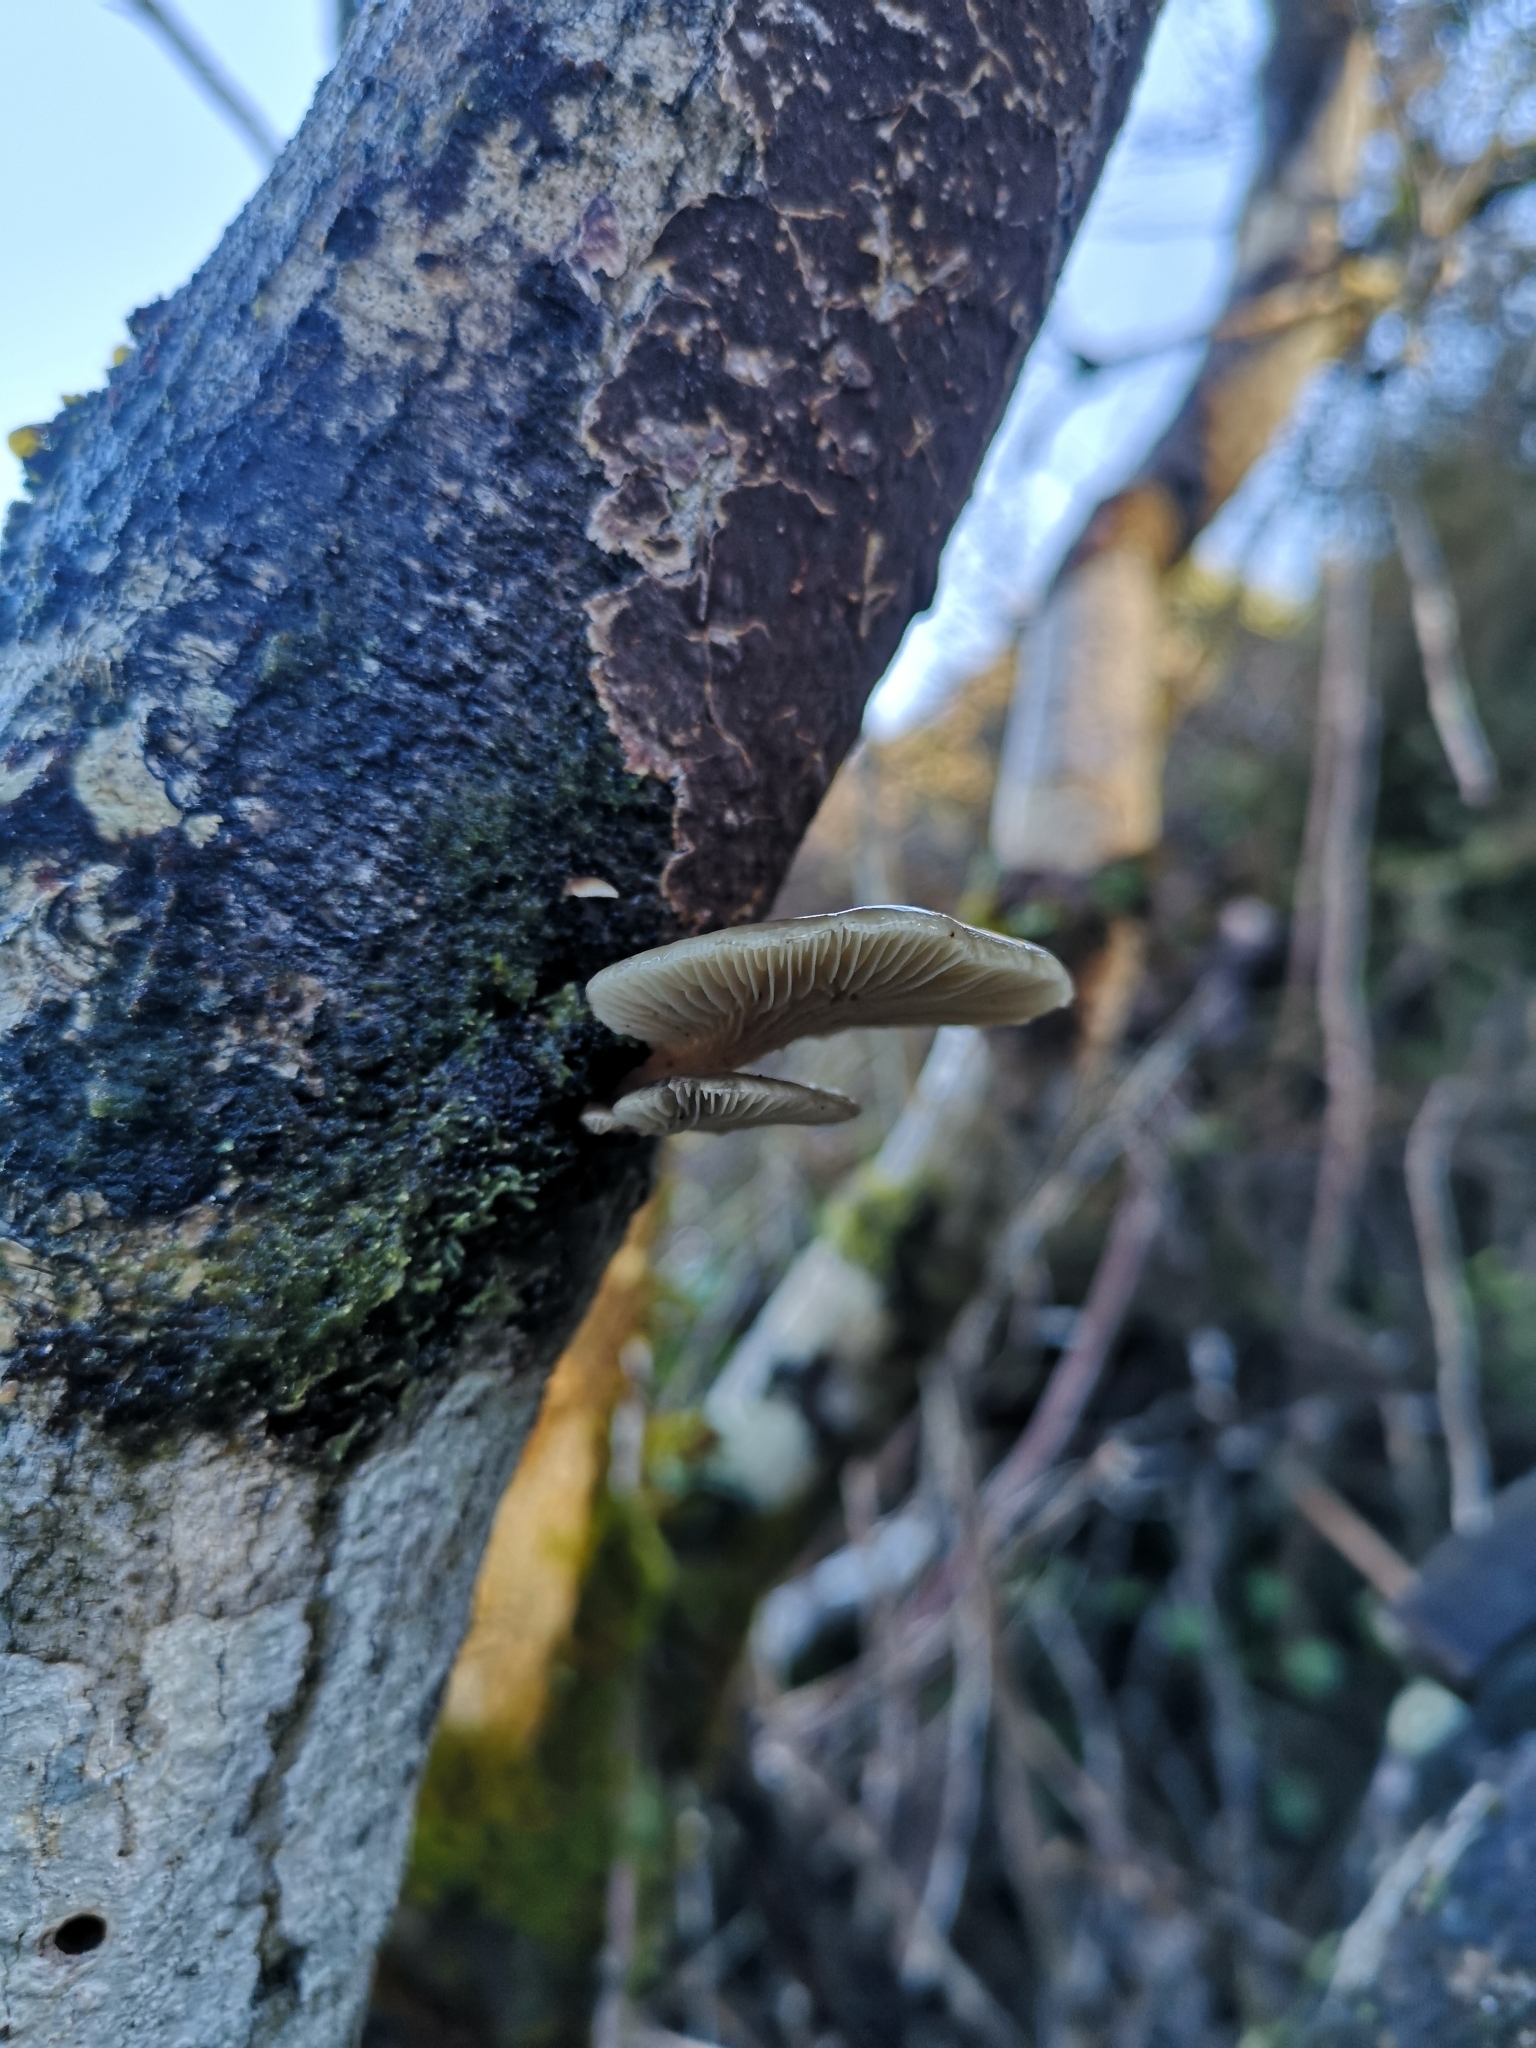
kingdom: Fungi
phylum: Basidiomycota
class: Agaricomycetes
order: Agaricales
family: Pleurotaceae
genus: Pleurotus
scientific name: Pleurotus purpureo-olivaceus
